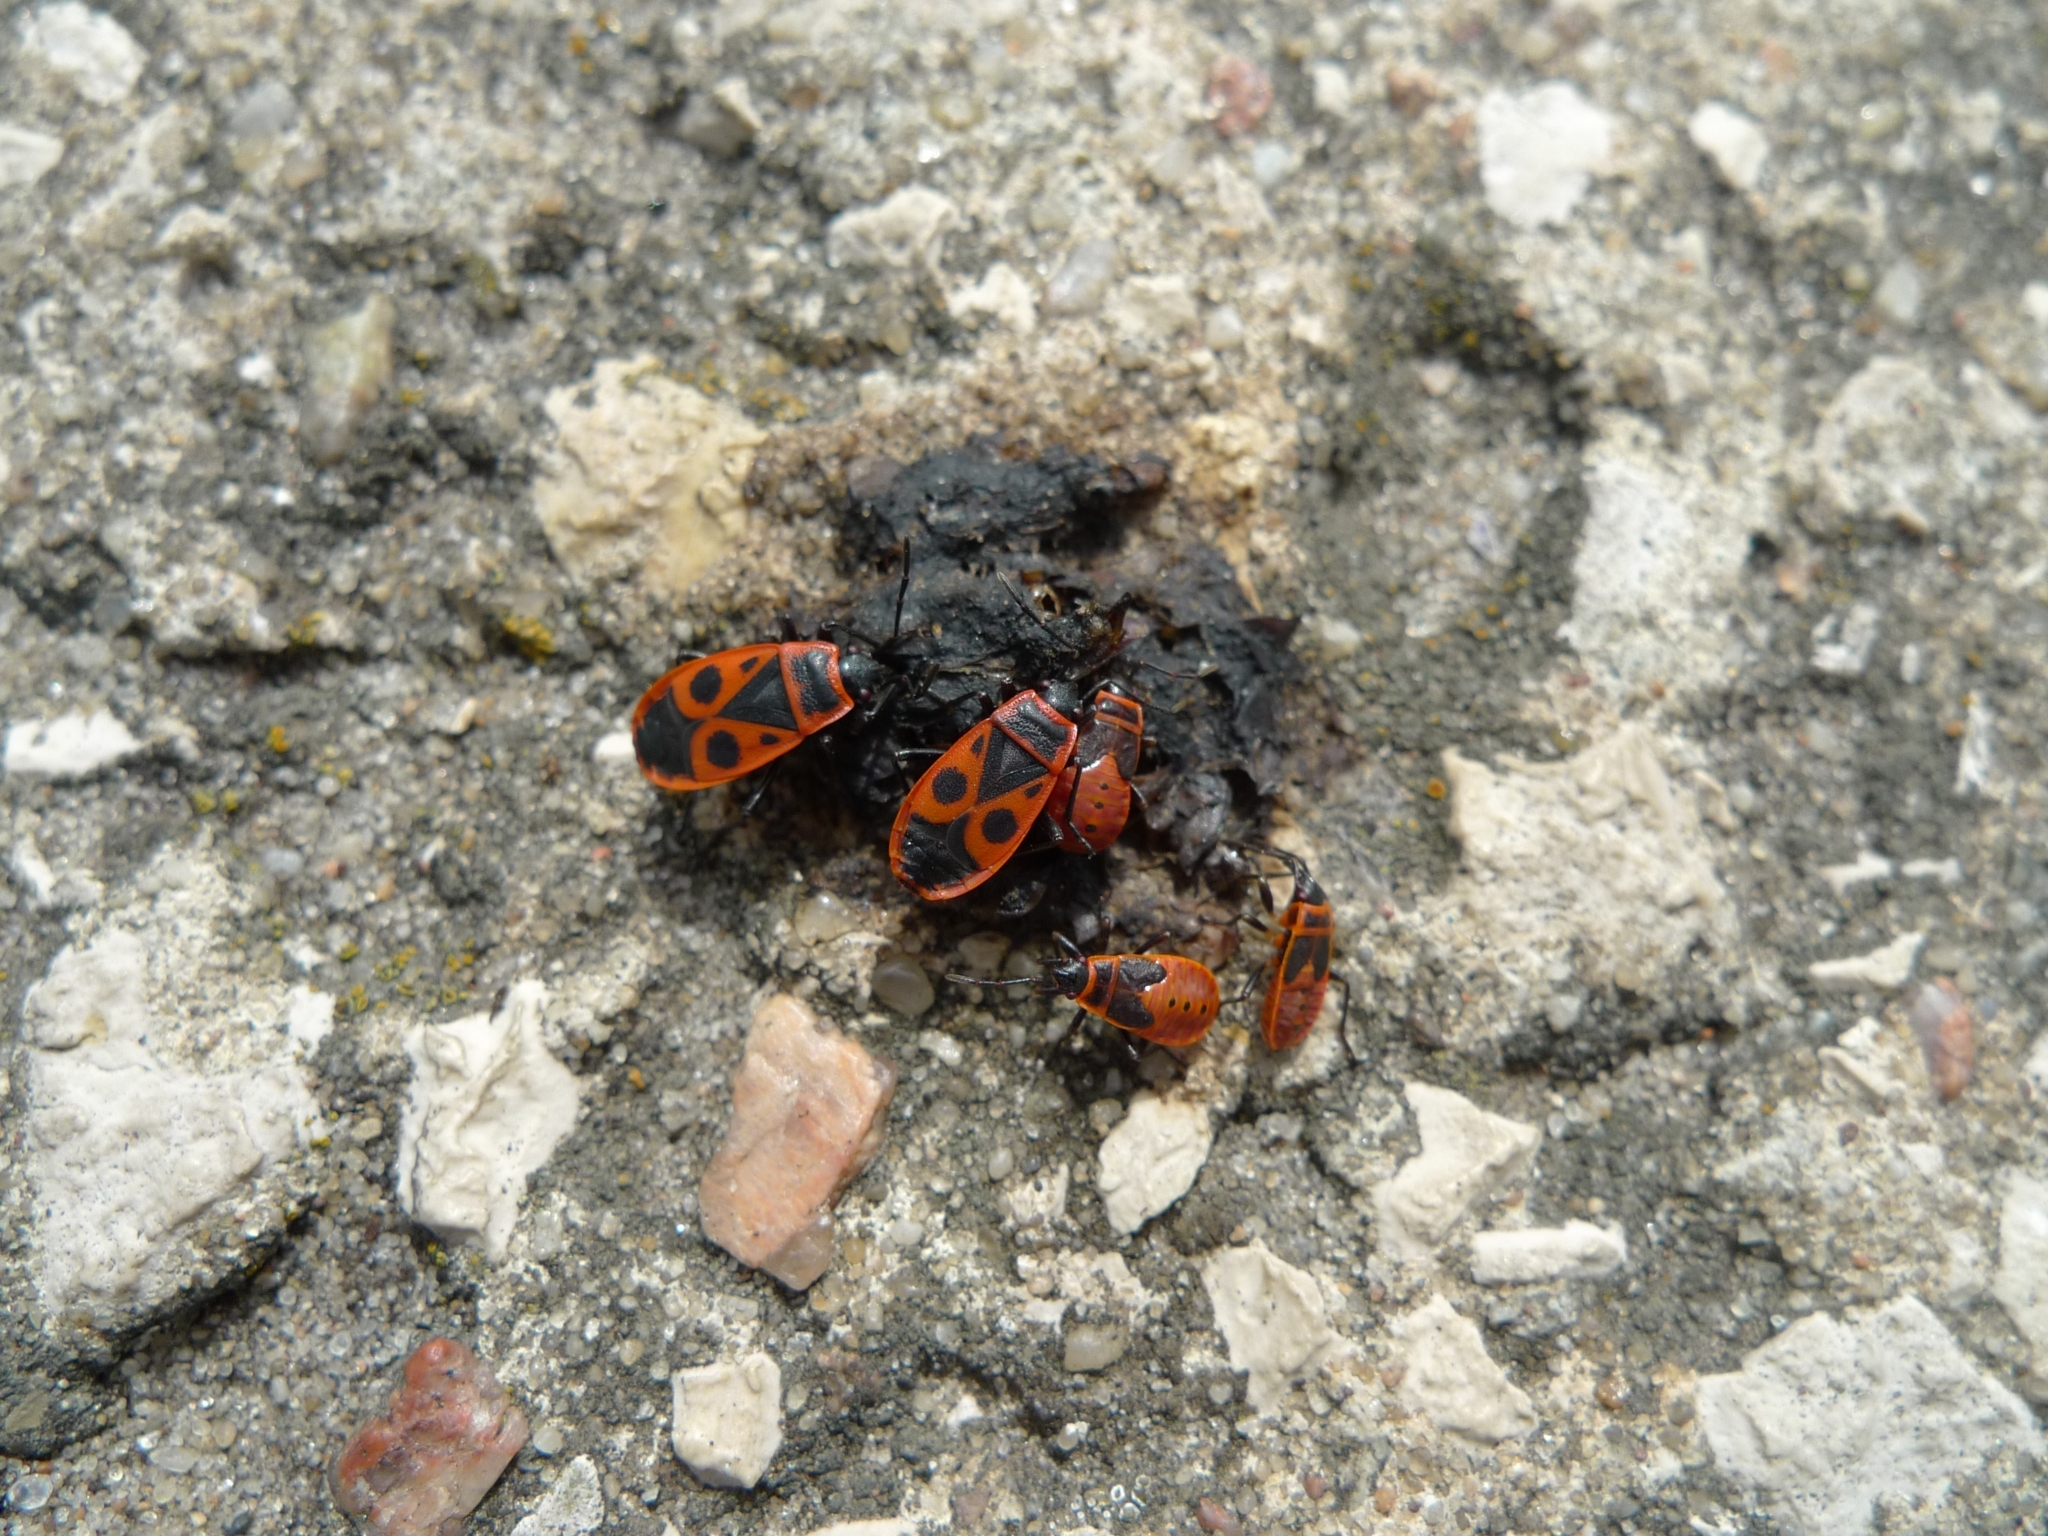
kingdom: Animalia
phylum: Arthropoda
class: Insecta
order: Hemiptera
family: Pyrrhocoridae
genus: Pyrrhocoris
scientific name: Pyrrhocoris apterus
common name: Firebug
